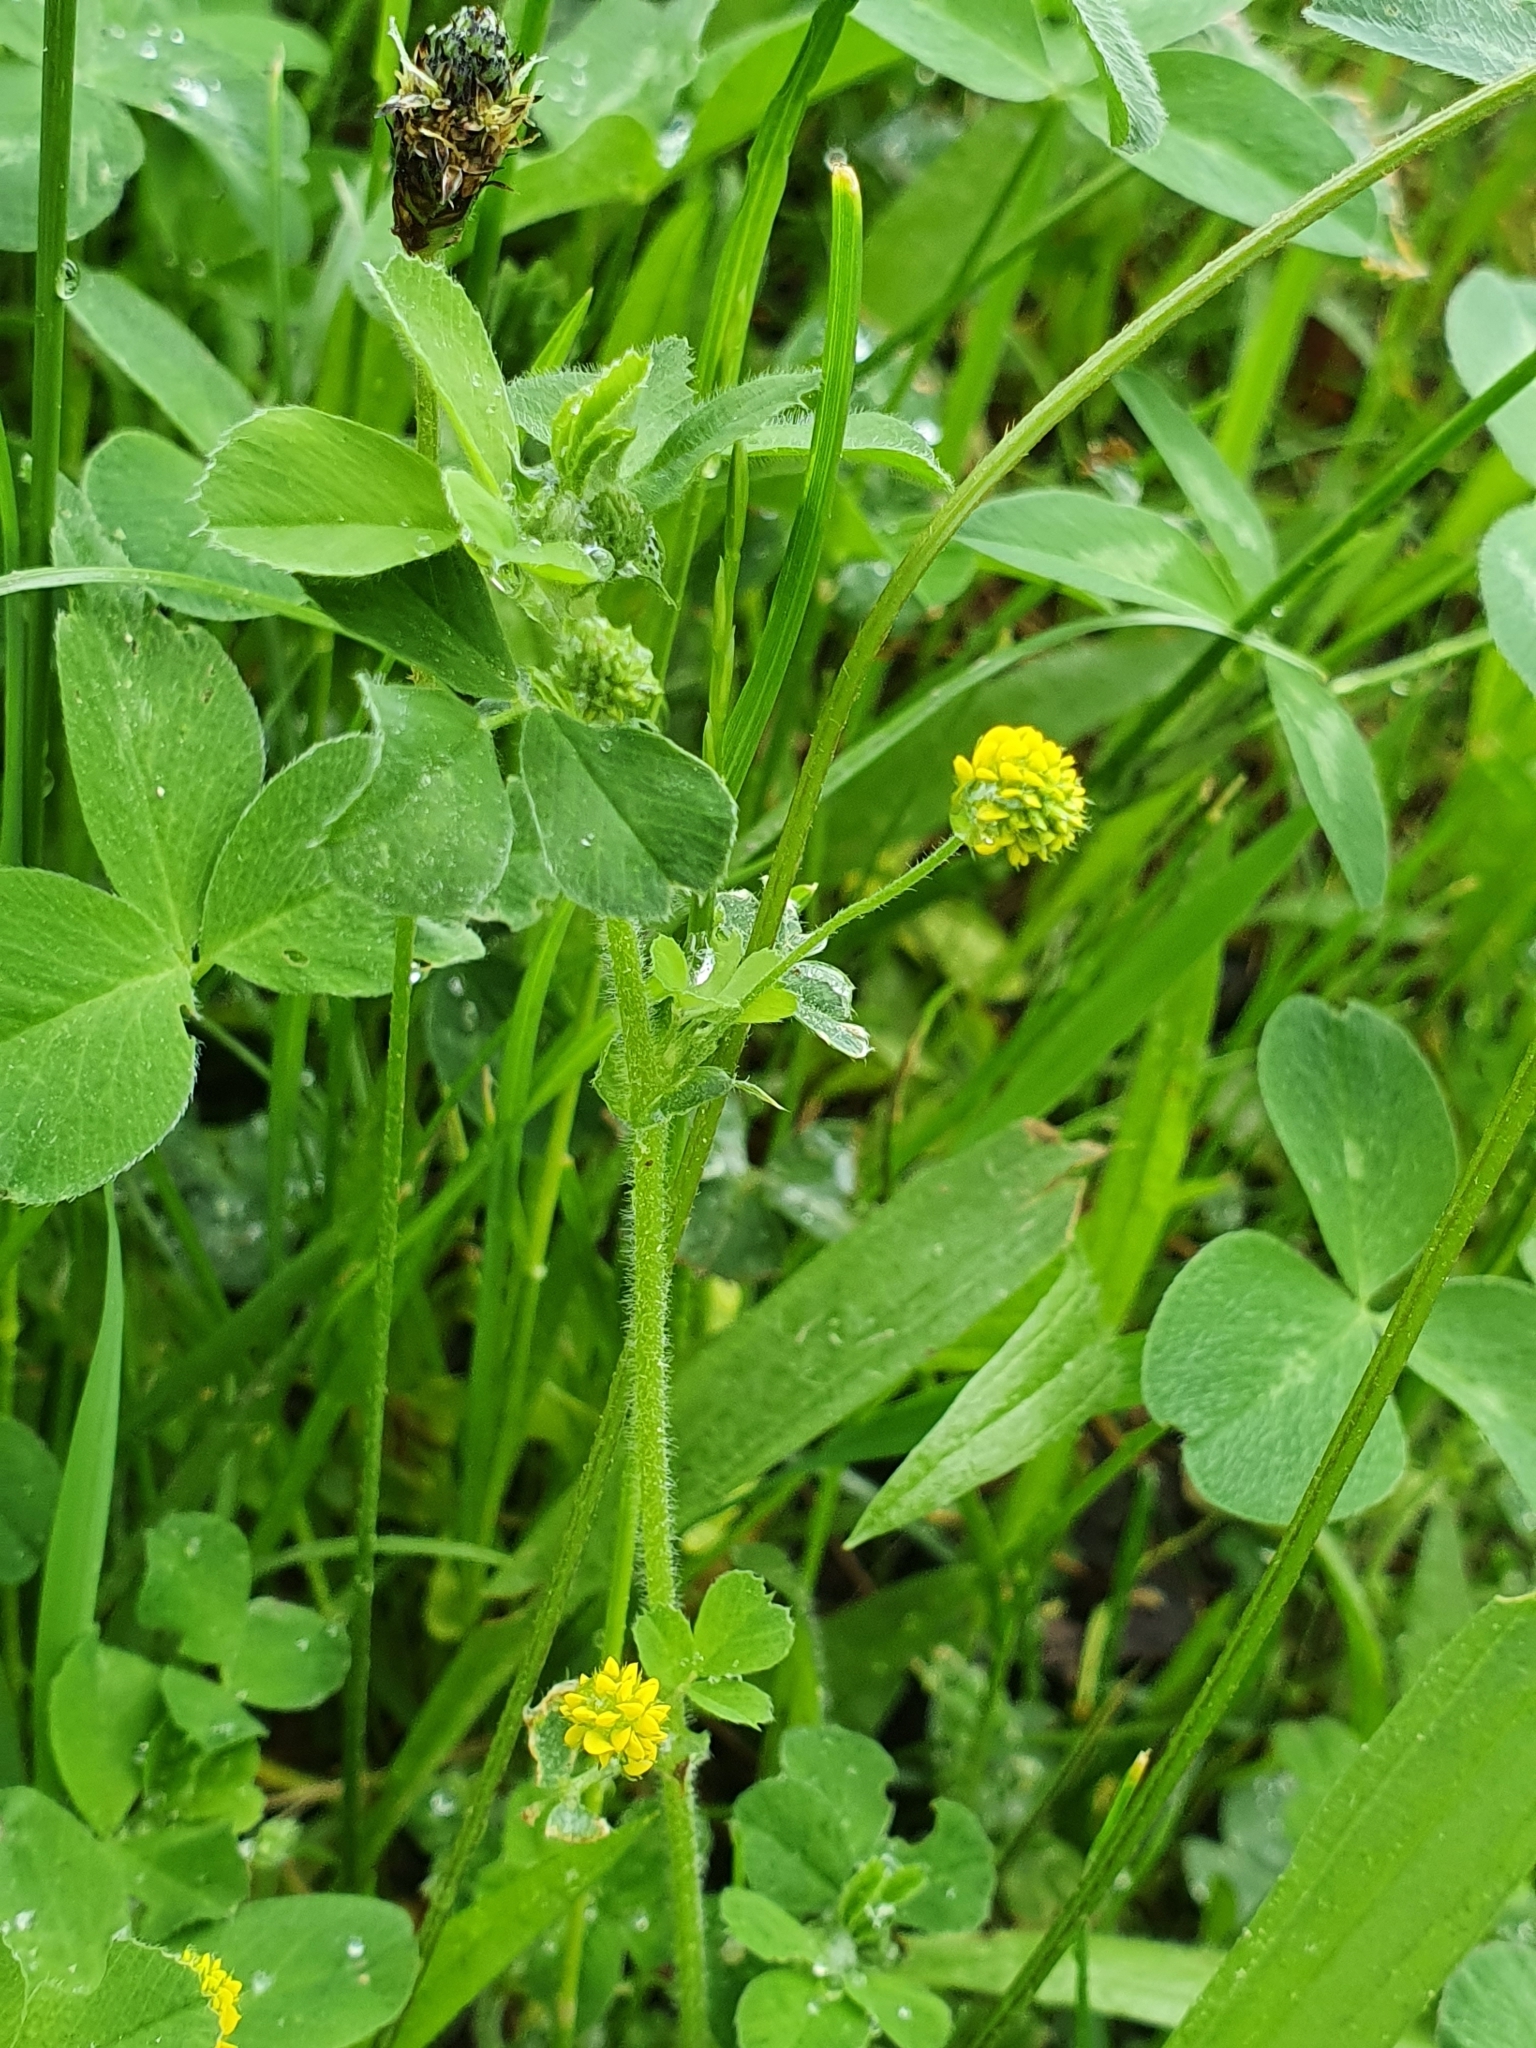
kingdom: Plantae
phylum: Tracheophyta
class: Magnoliopsida
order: Fabales
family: Fabaceae
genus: Medicago
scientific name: Medicago lupulina
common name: Black medick
